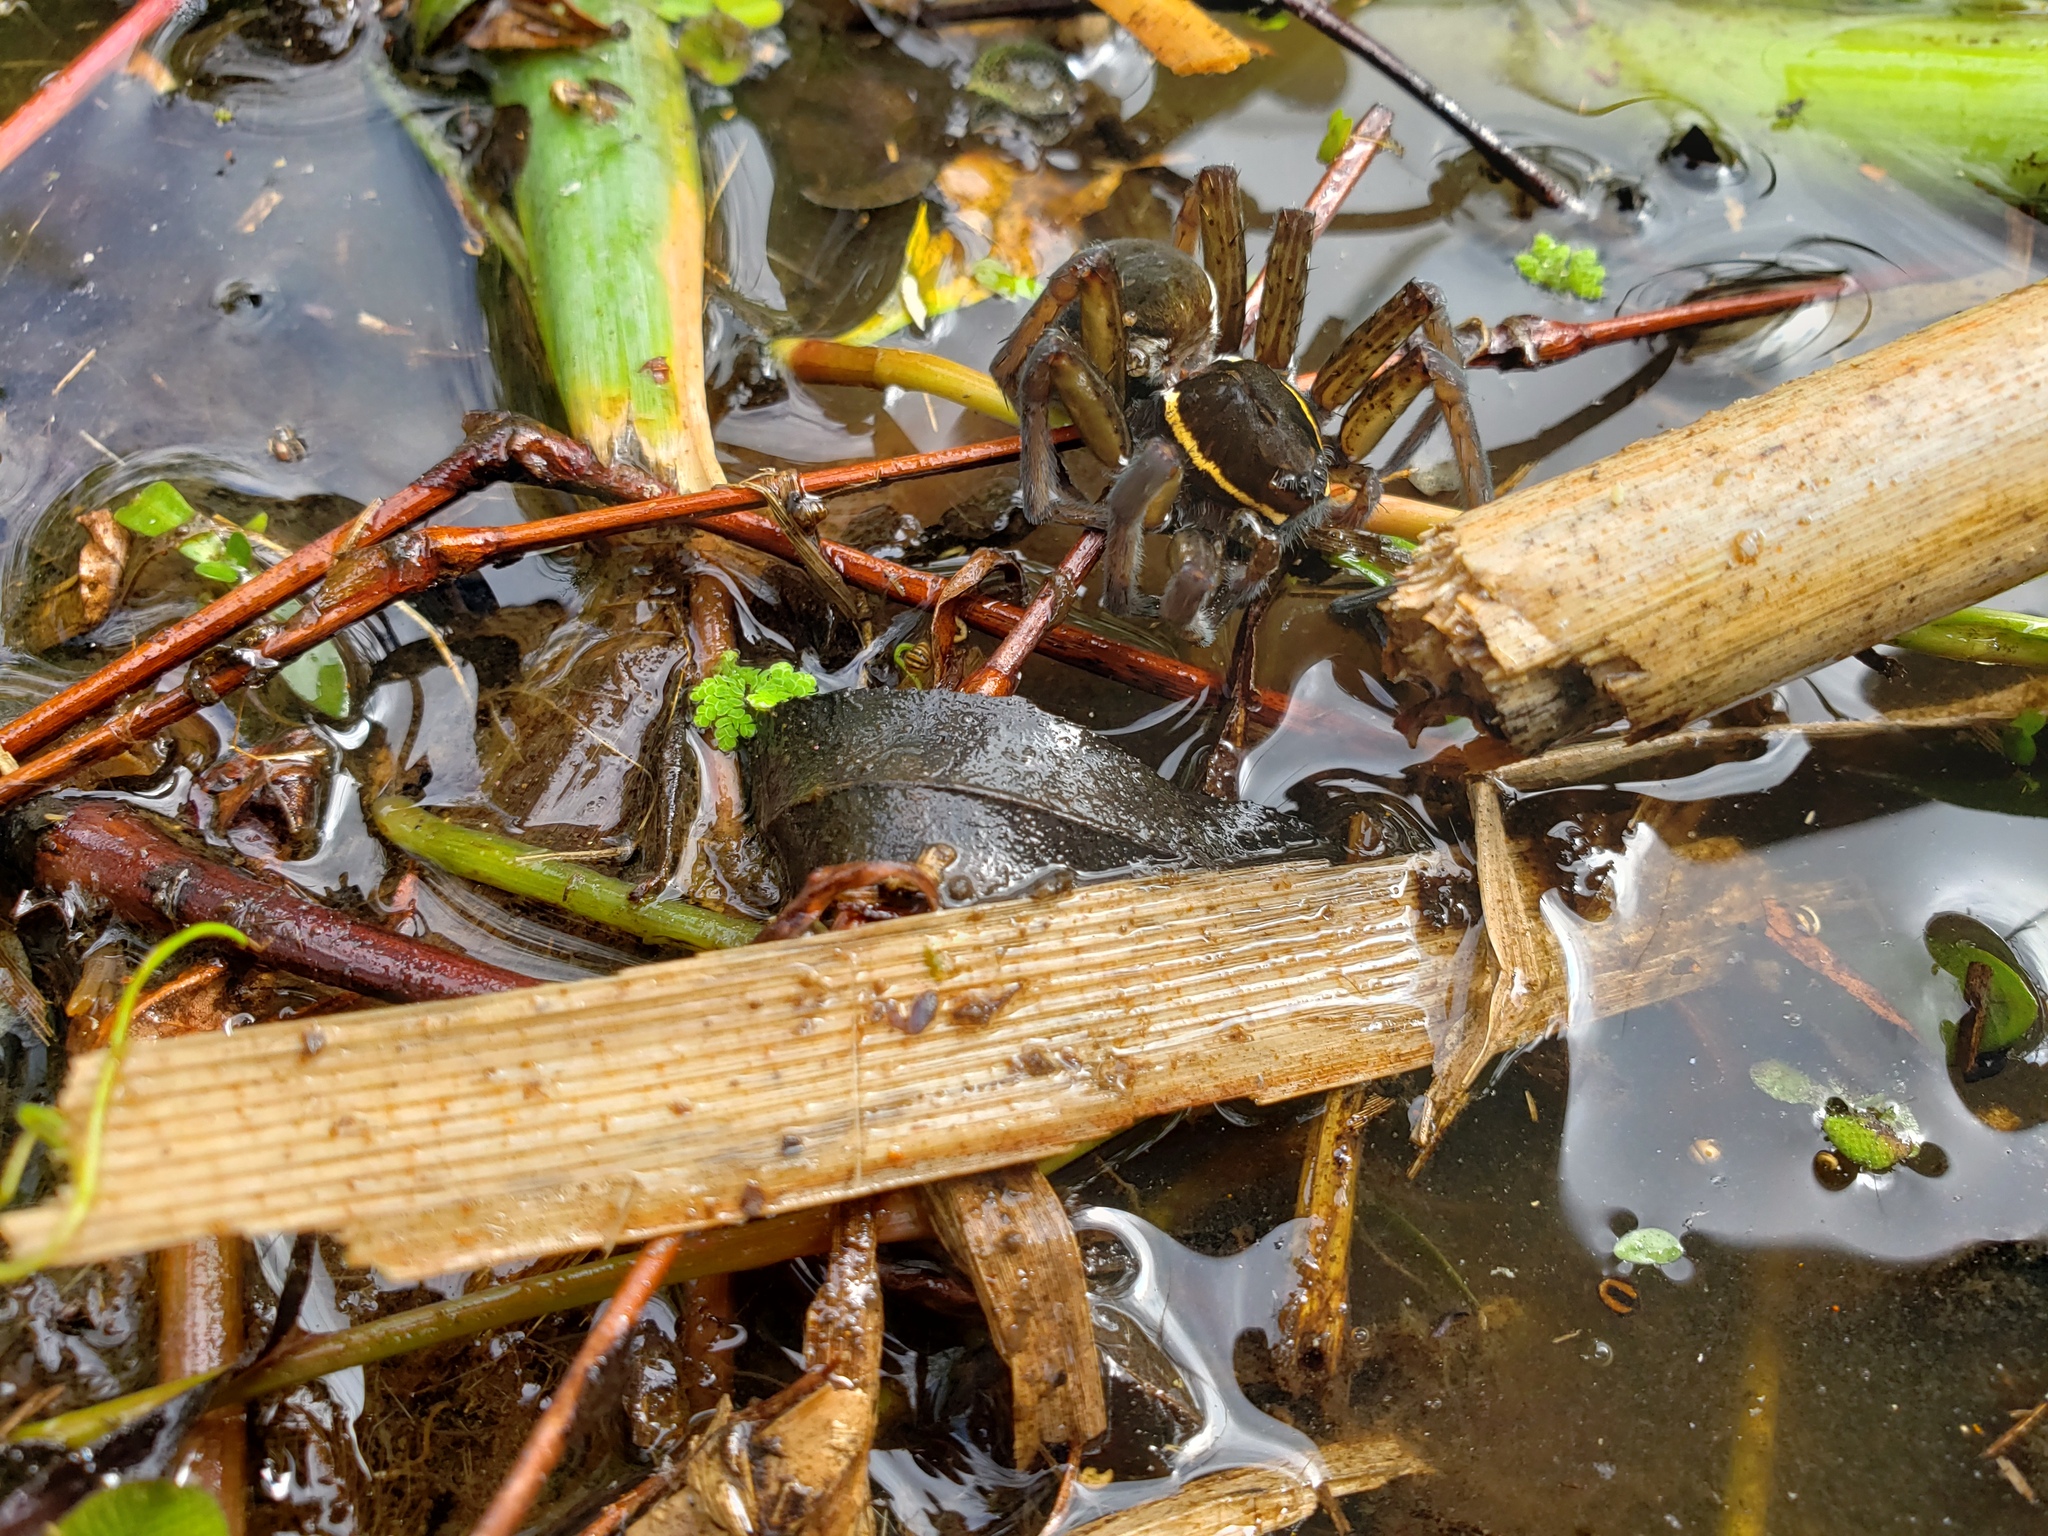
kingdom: Animalia
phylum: Arthropoda
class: Arachnida
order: Araneae
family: Pisauridae
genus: Dolomedes
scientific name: Dolomedes triton
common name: Six-spotted fishing spider
